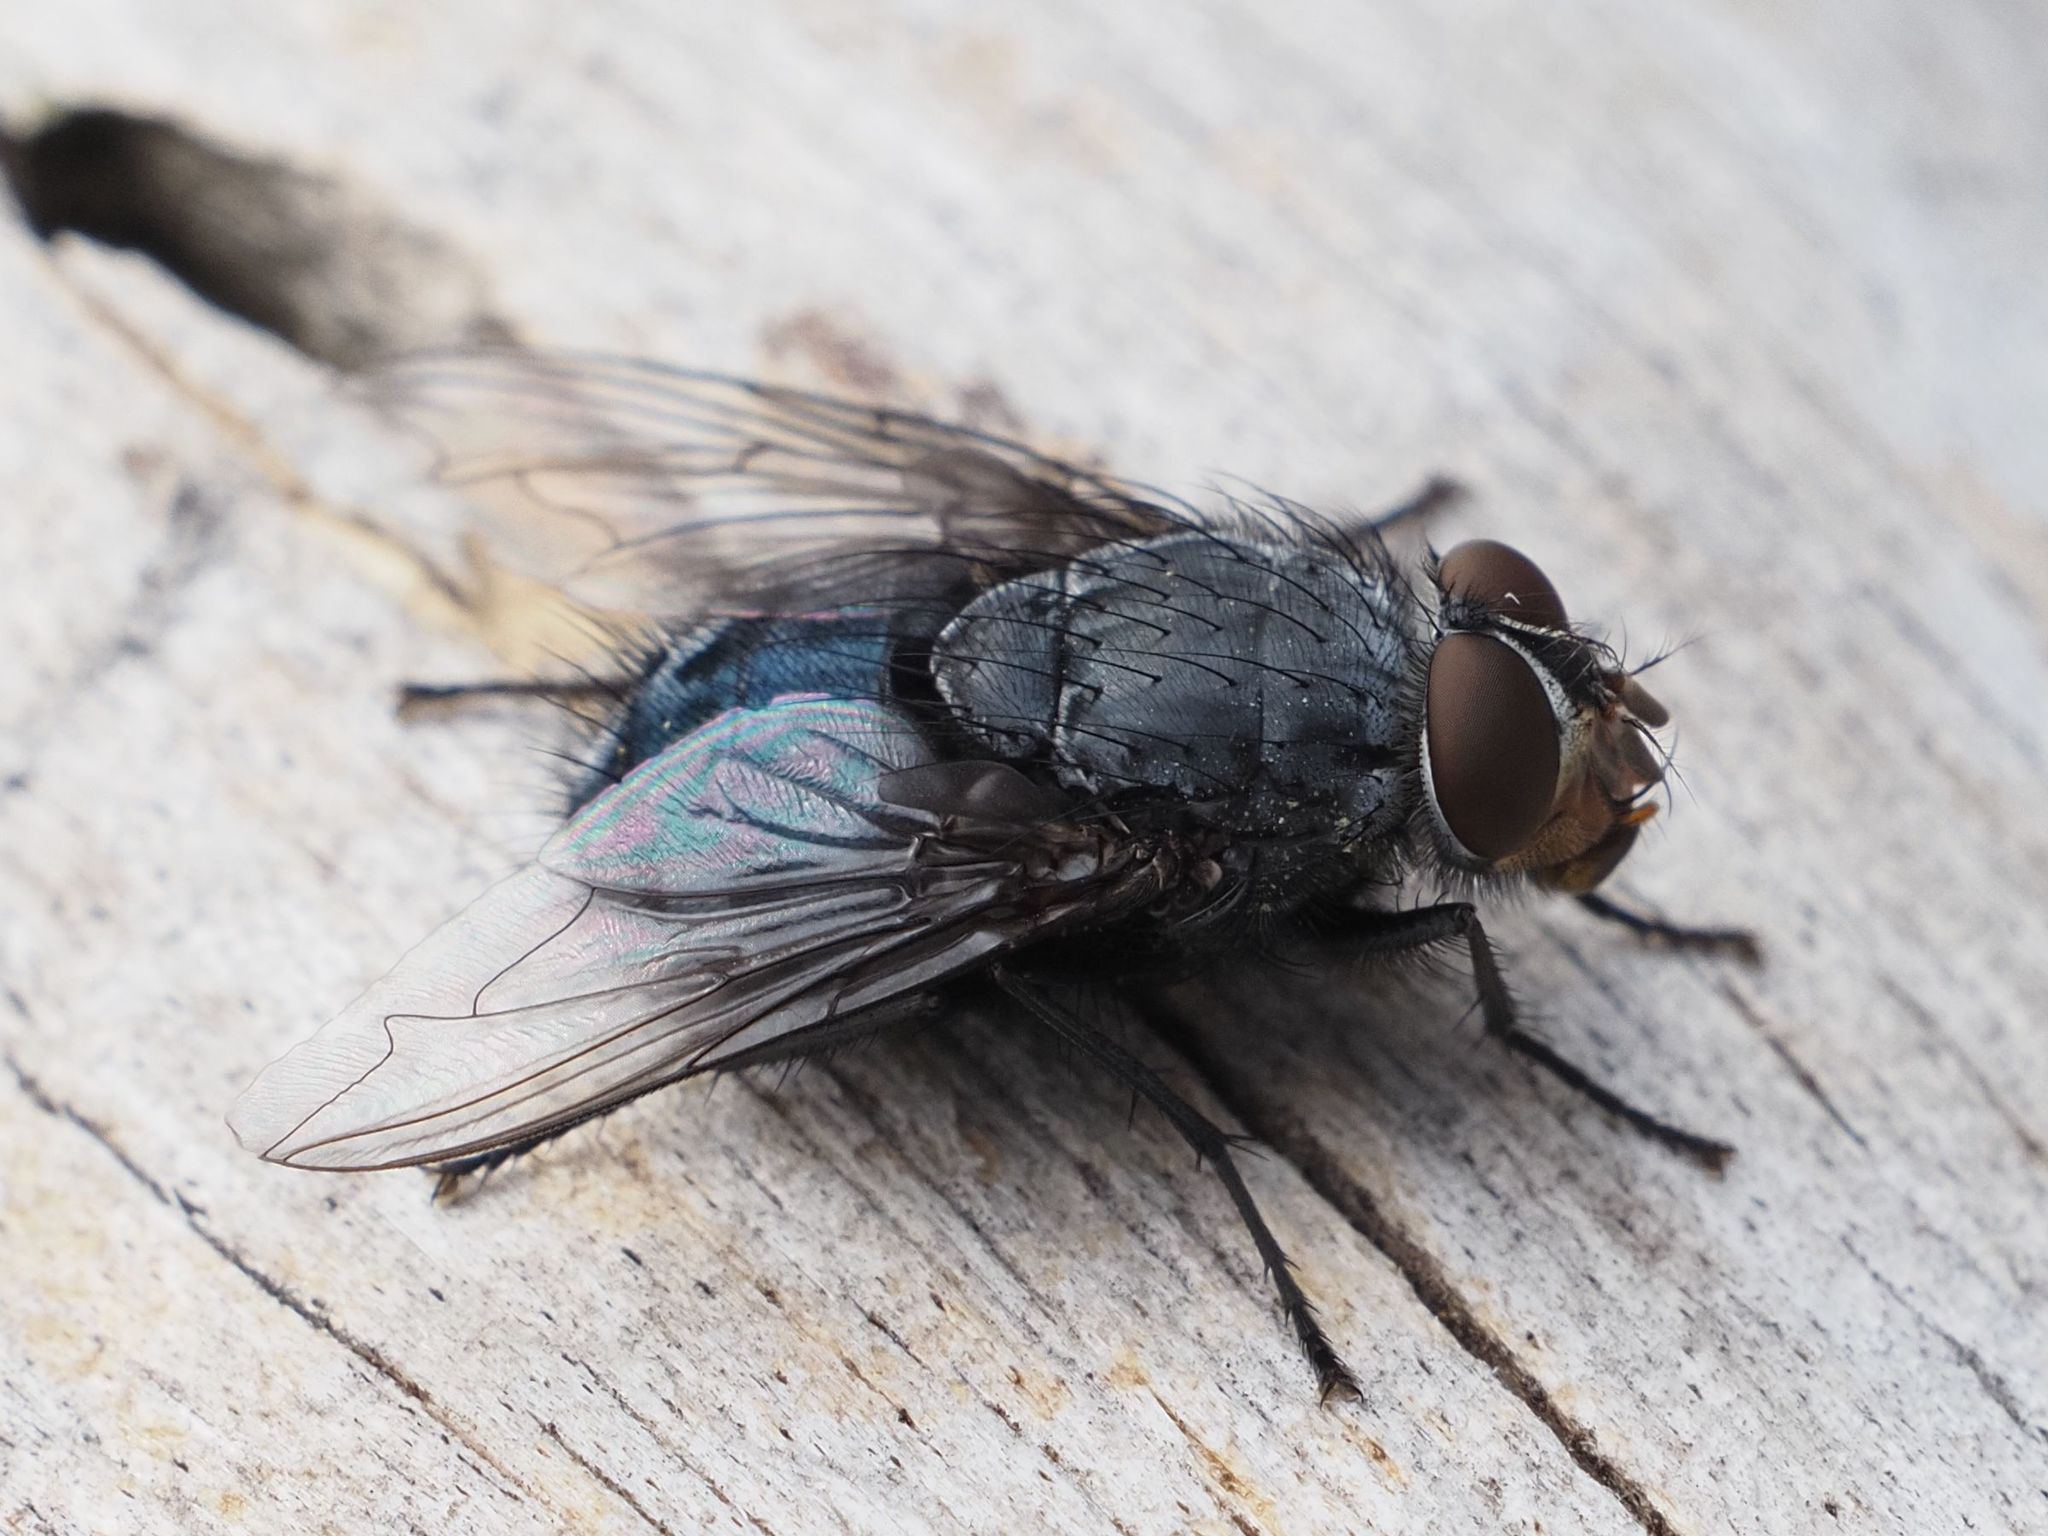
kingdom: Animalia
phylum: Arthropoda
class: Insecta
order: Diptera
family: Calliphoridae
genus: Calliphora
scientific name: Calliphora vicina
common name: Common blow flie
